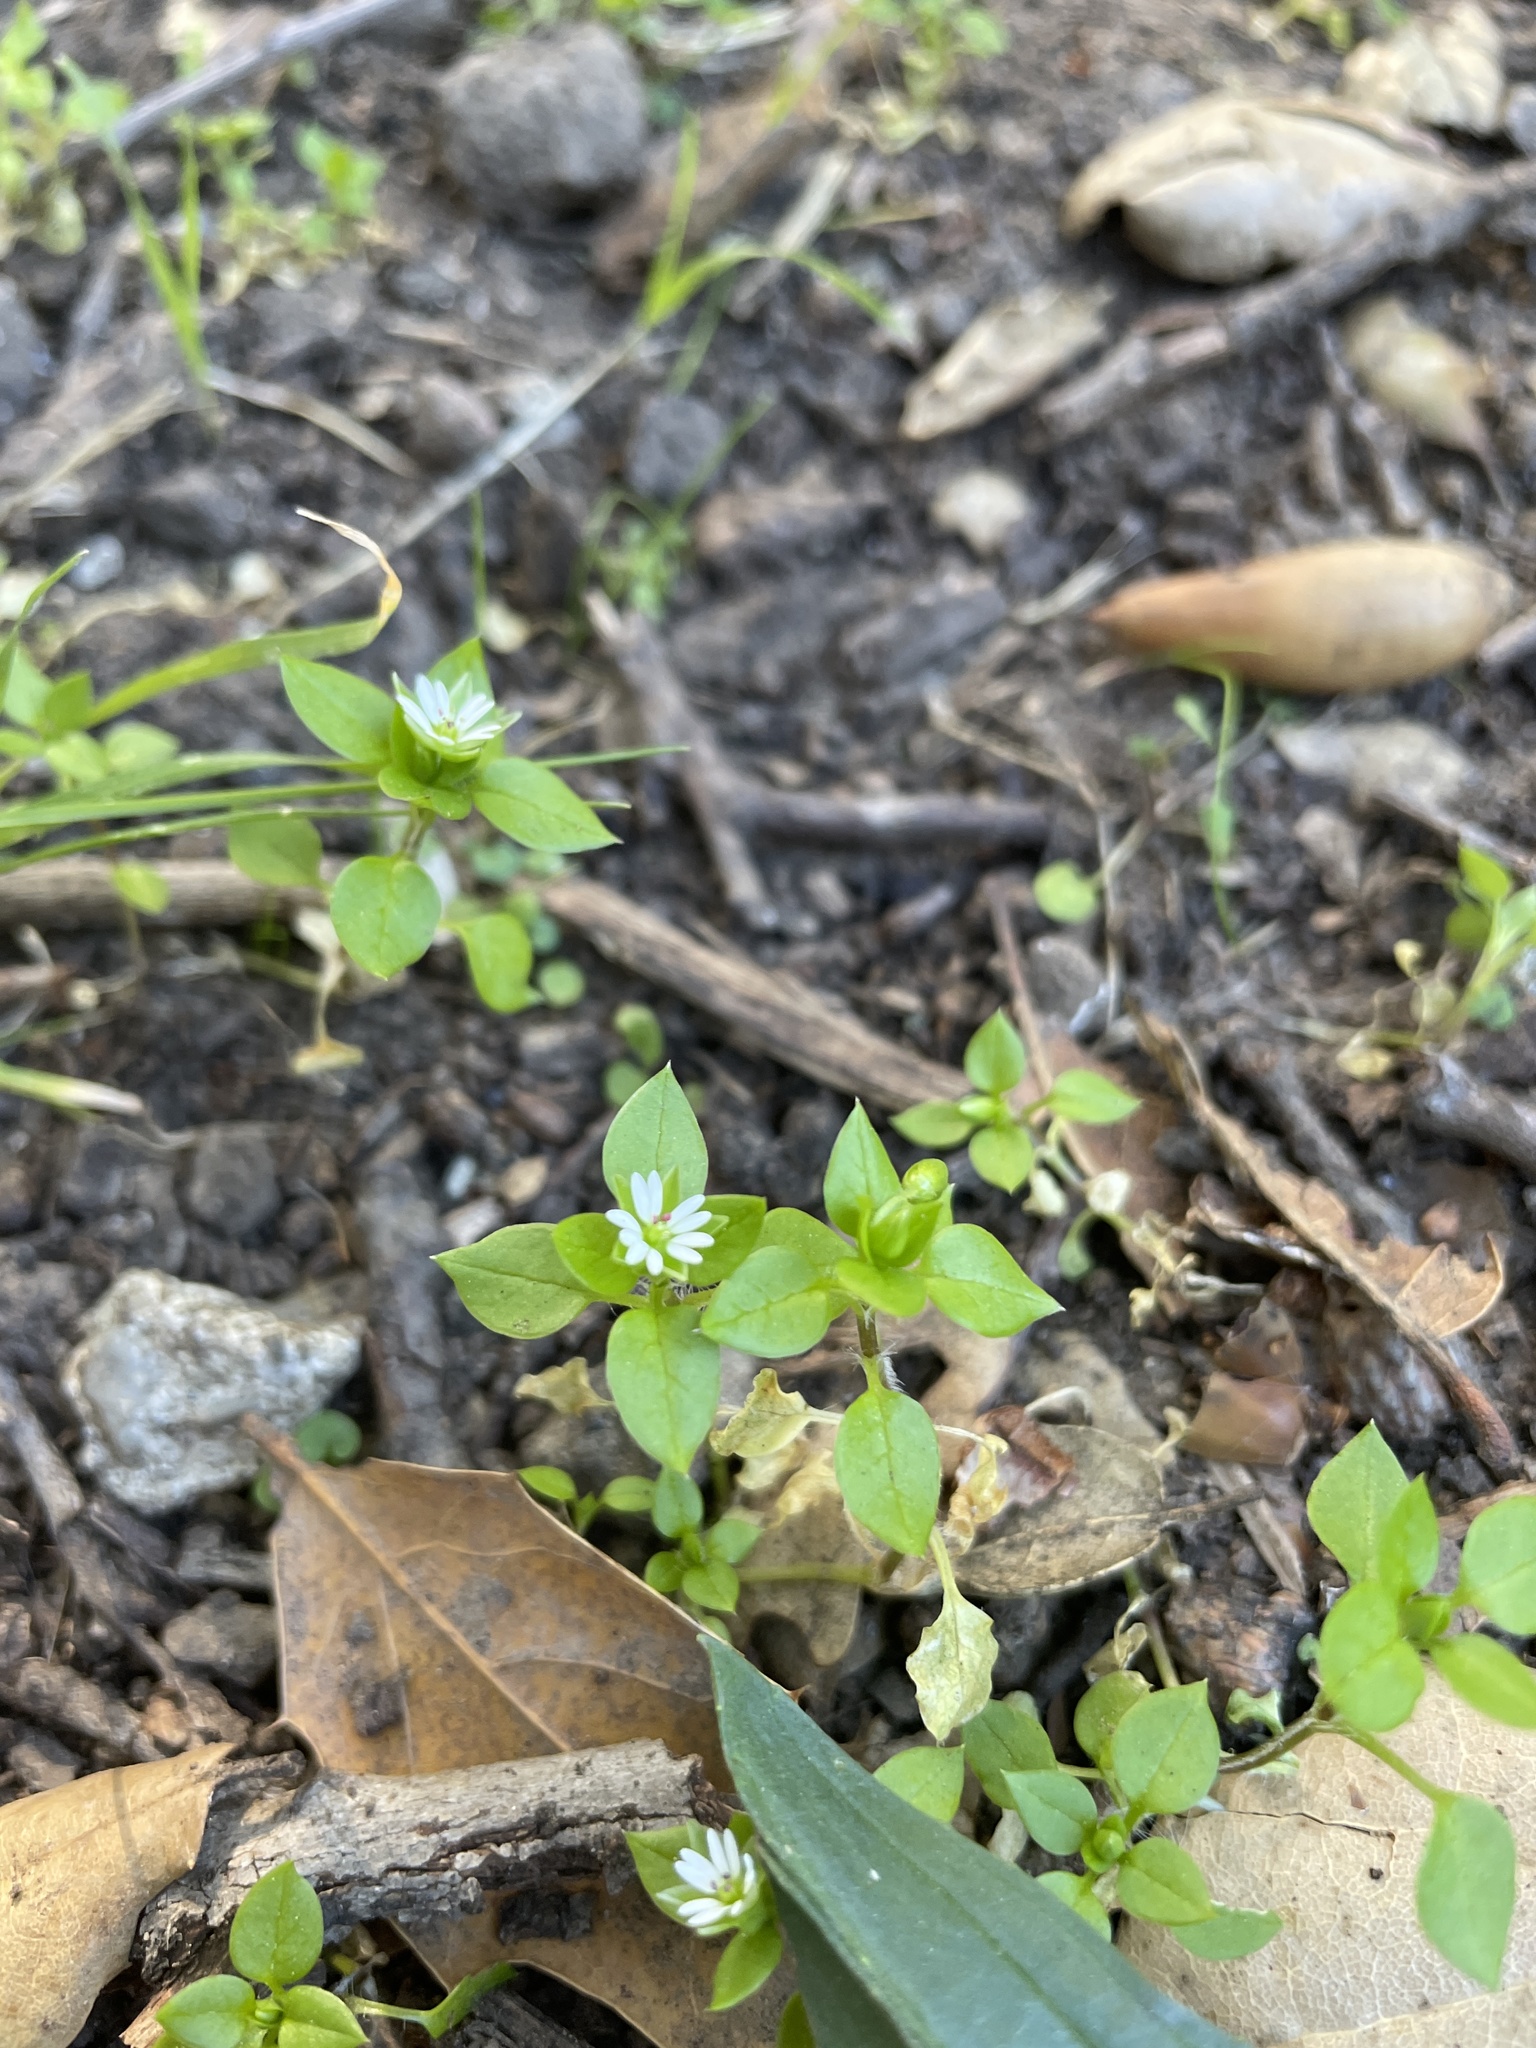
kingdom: Plantae
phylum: Tracheophyta
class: Magnoliopsida
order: Caryophyllales
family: Caryophyllaceae
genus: Stellaria
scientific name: Stellaria media
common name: Common chickweed
